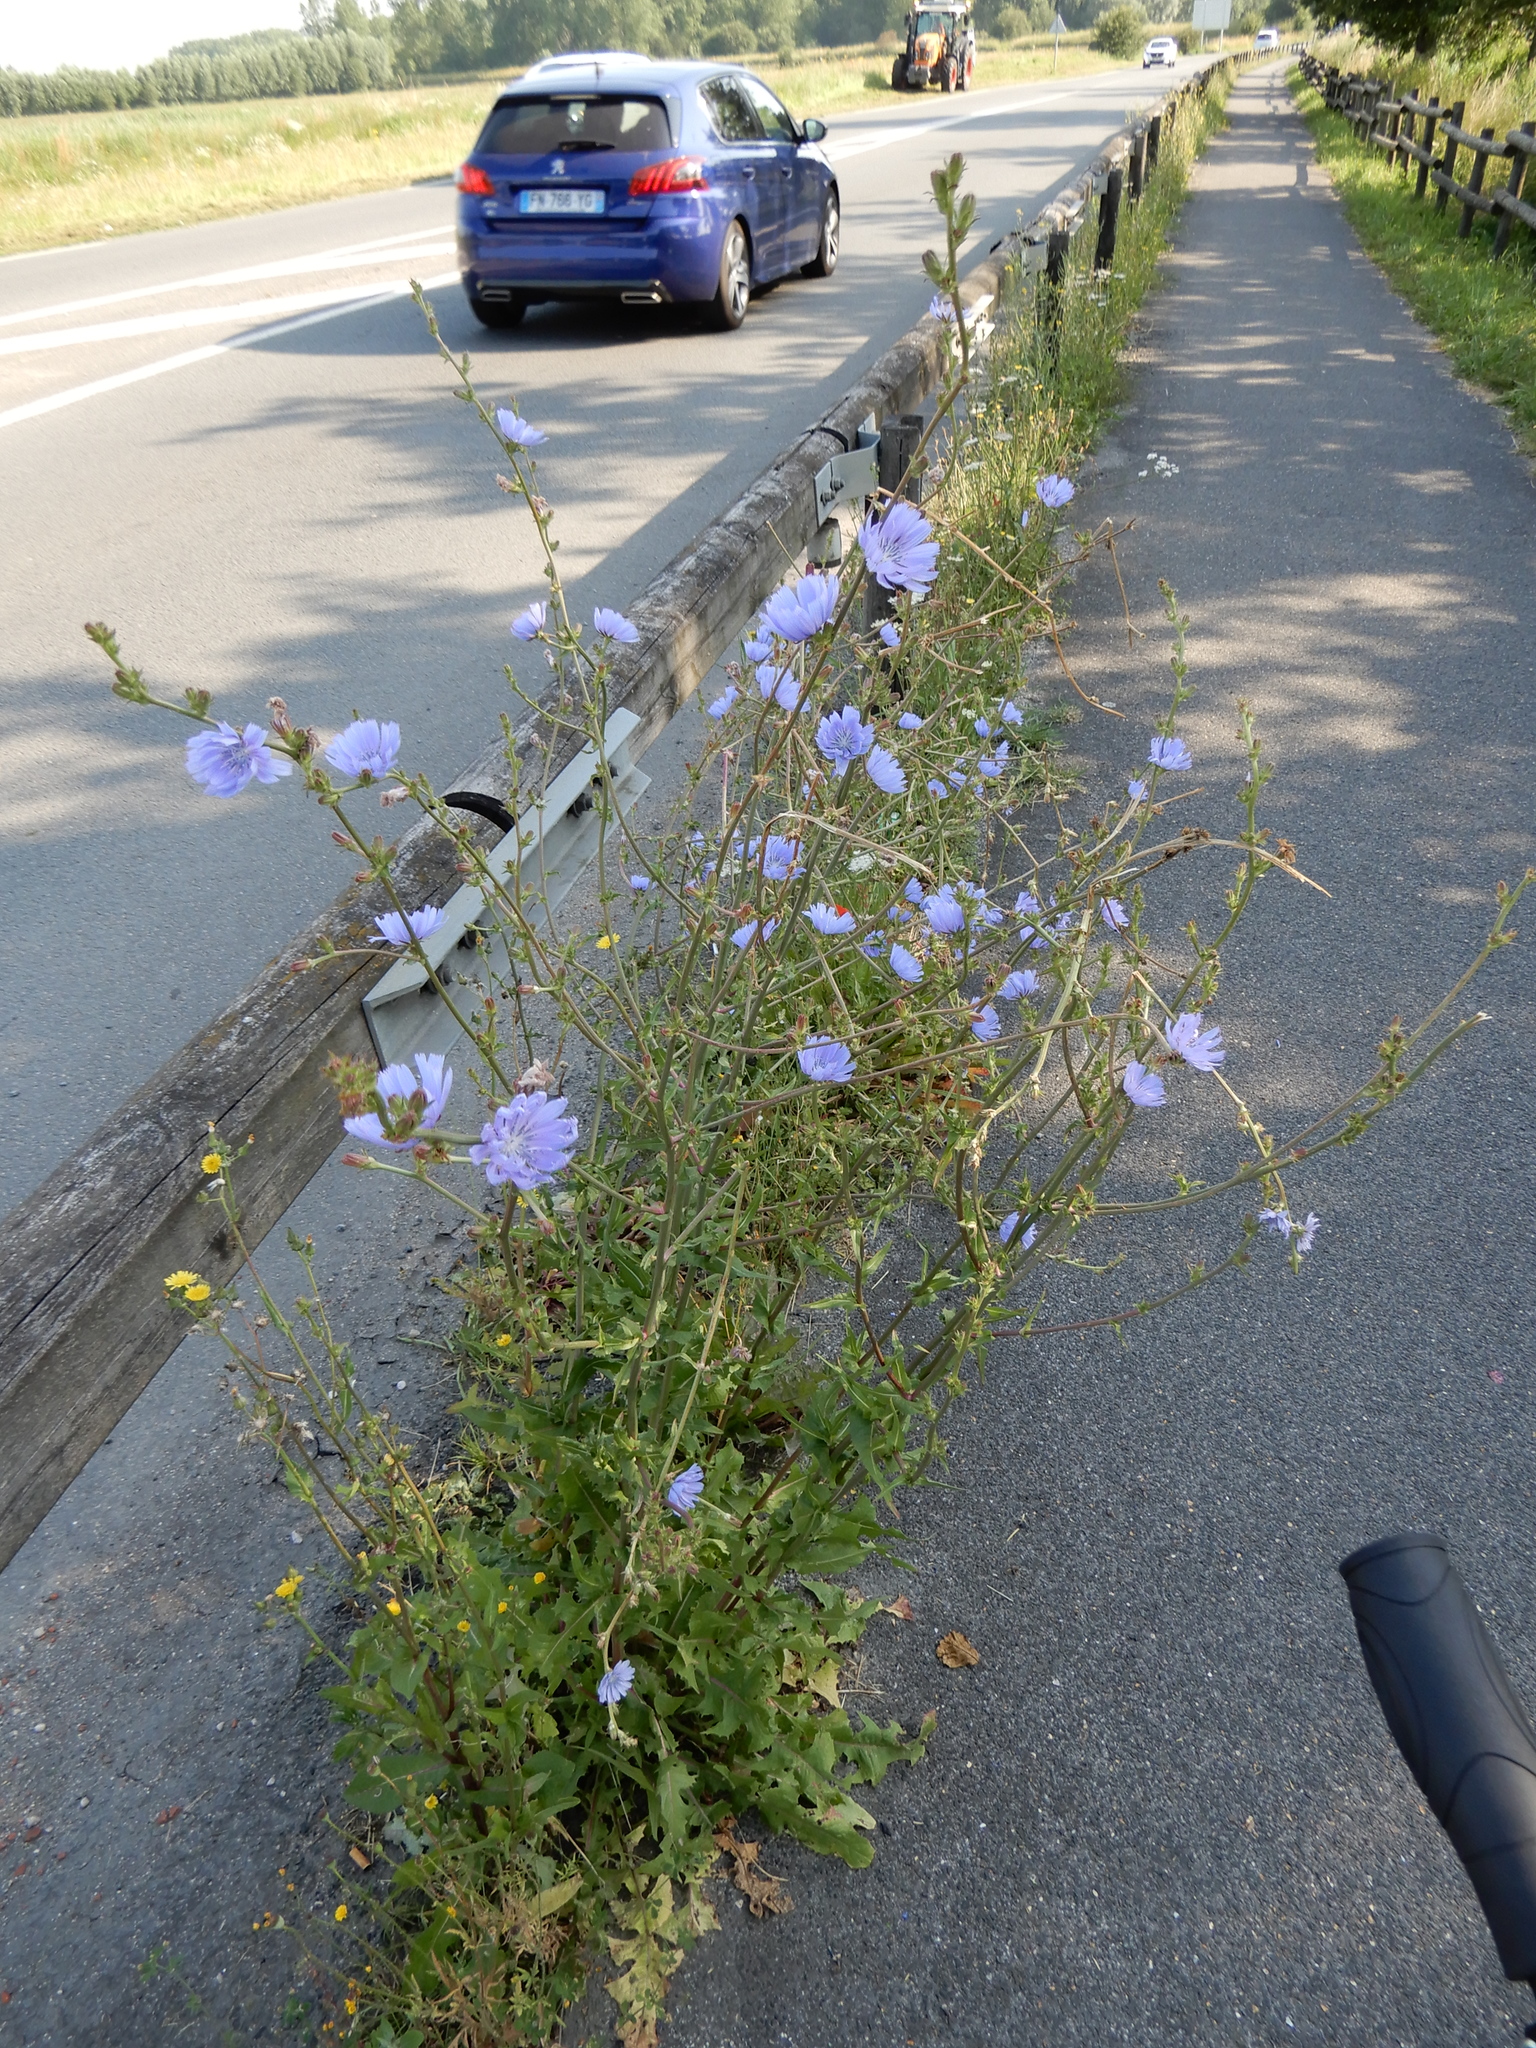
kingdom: Plantae
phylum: Tracheophyta
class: Magnoliopsida
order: Asterales
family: Asteraceae
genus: Cichorium
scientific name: Cichorium intybus
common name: Chicory
